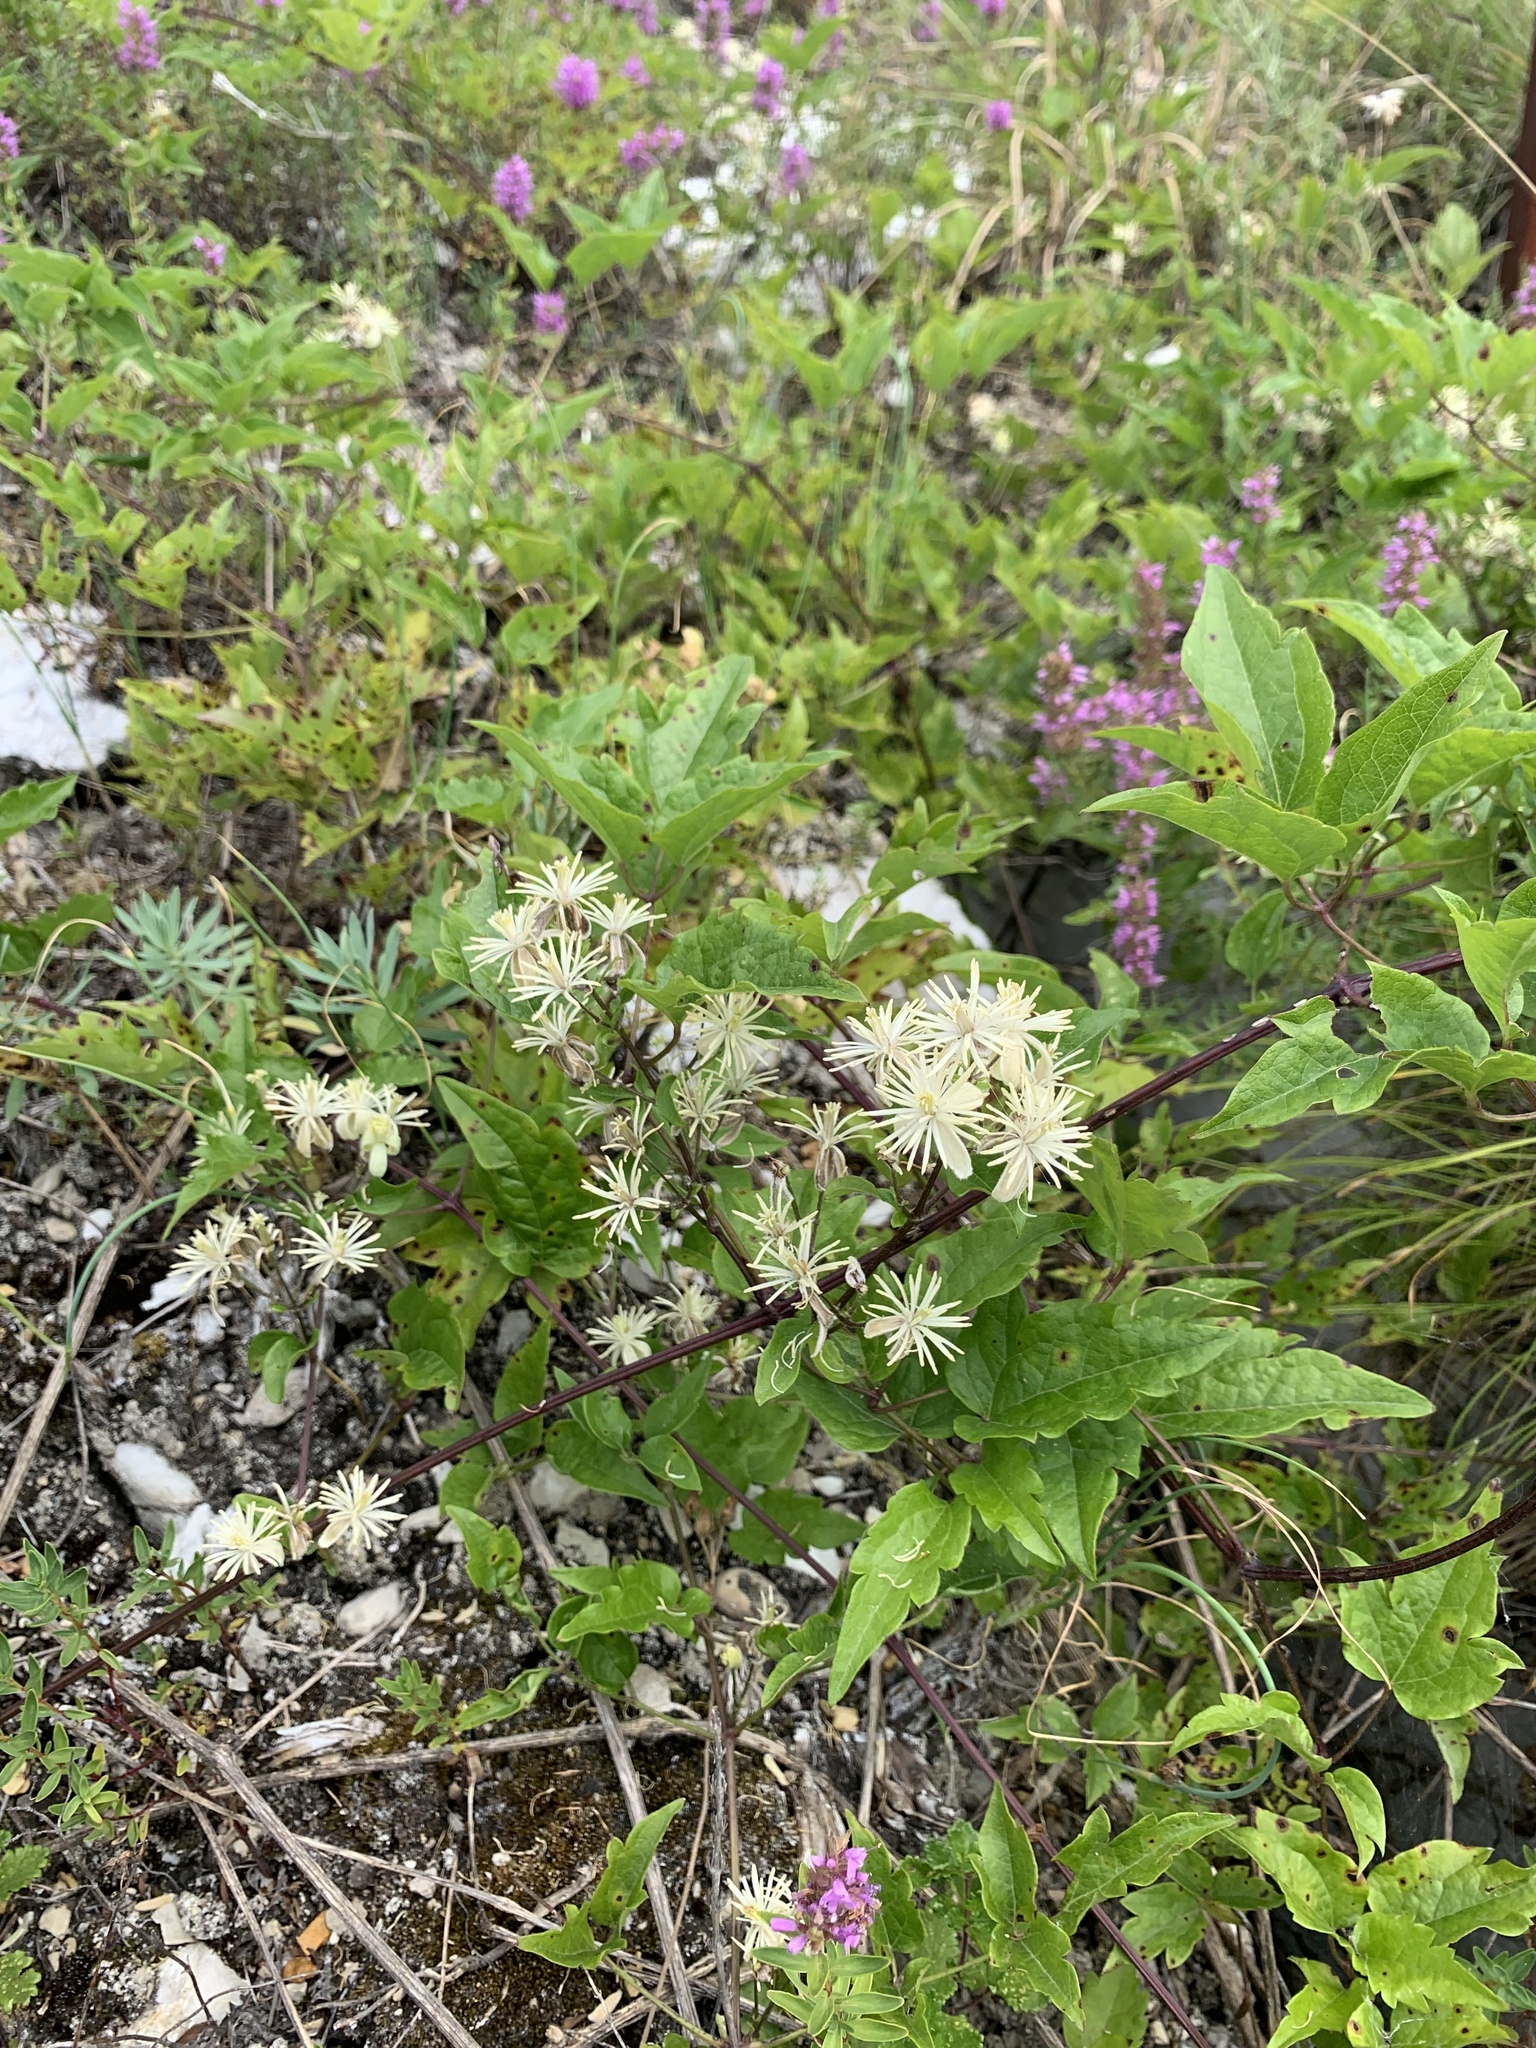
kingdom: Plantae
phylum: Tracheophyta
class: Magnoliopsida
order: Ranunculales
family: Ranunculaceae
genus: Clematis
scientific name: Clematis vitalba
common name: Evergreen clematis
